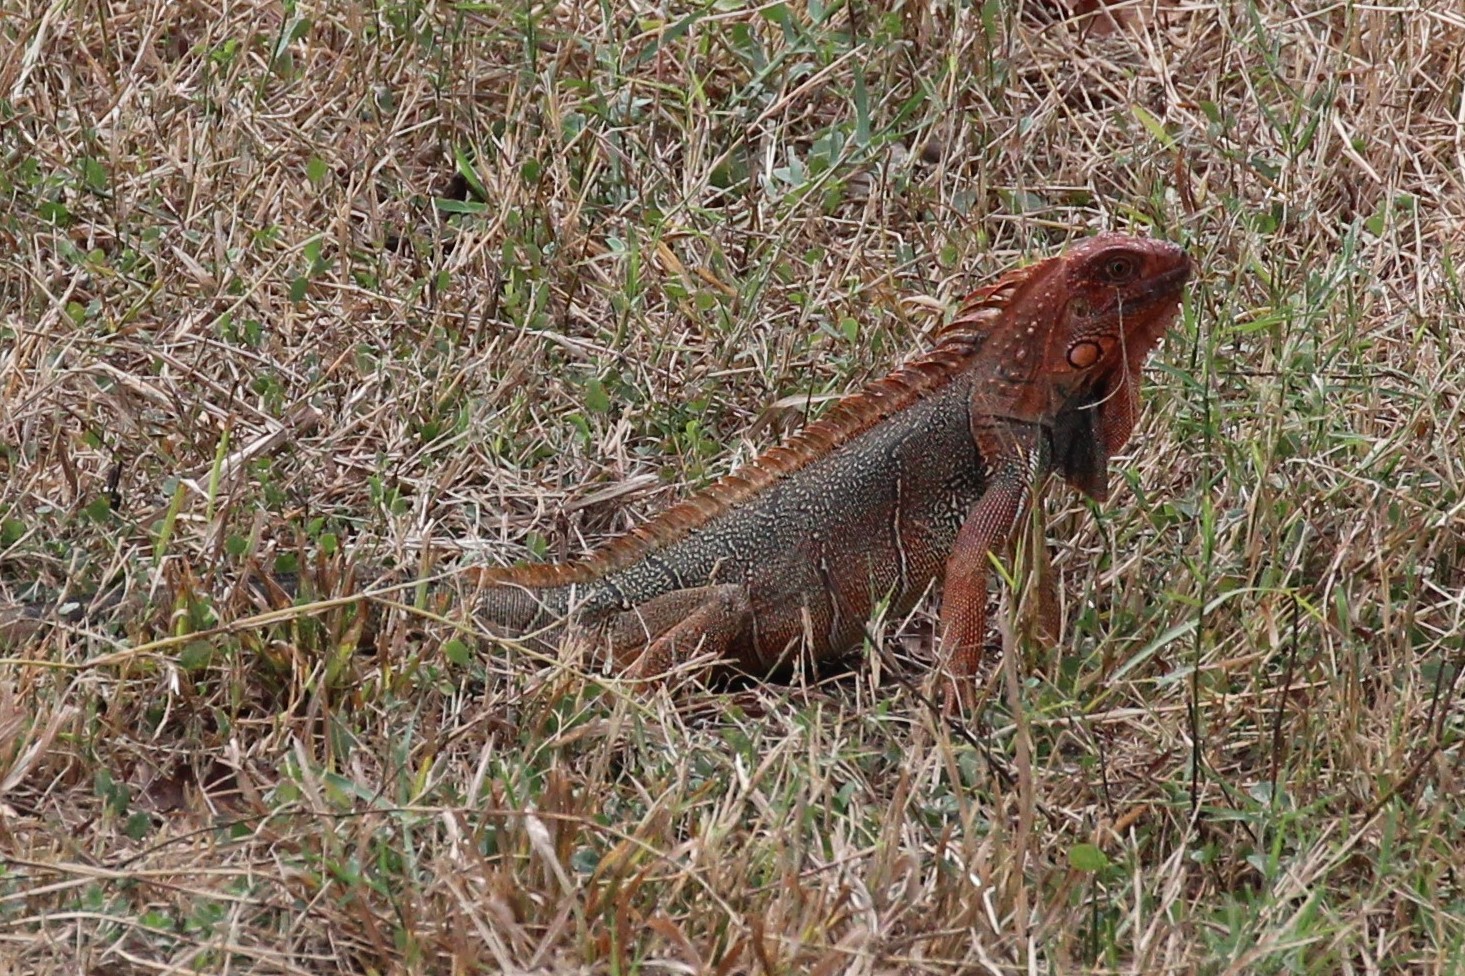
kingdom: Animalia
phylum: Chordata
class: Squamata
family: Iguanidae
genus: Iguana
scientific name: Iguana iguana
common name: Green iguana
